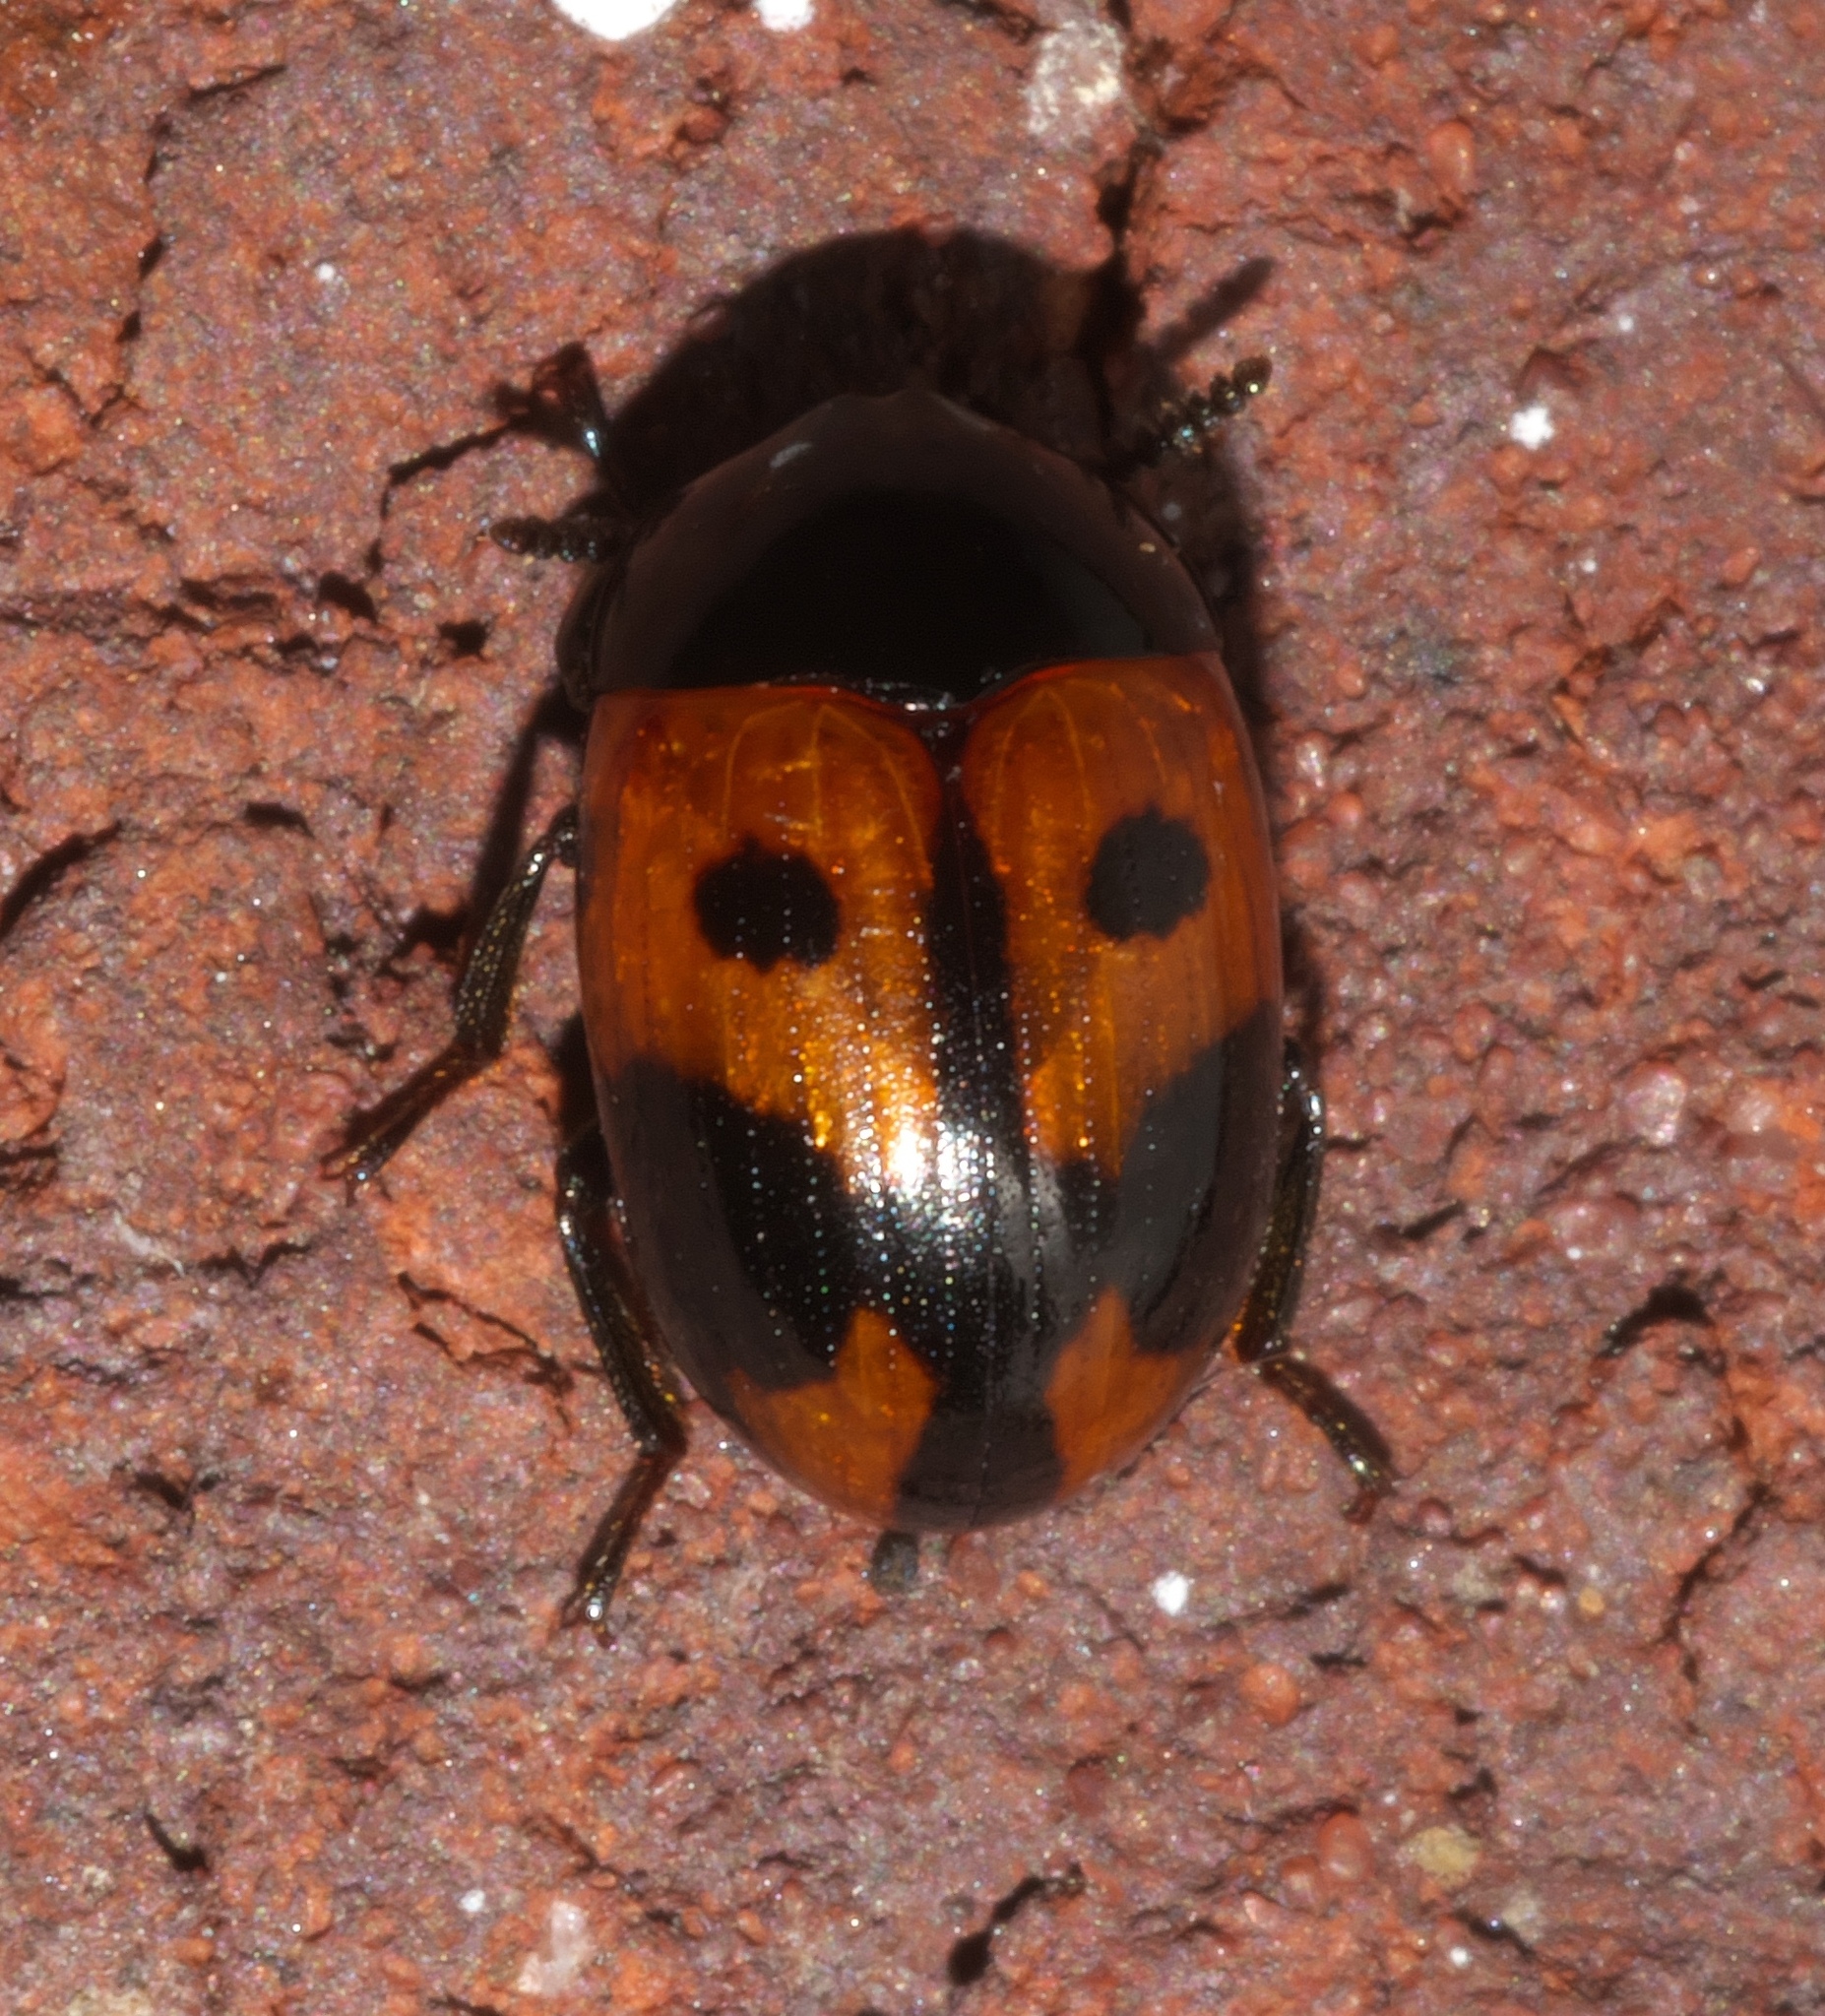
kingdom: Animalia
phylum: Arthropoda
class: Insecta
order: Coleoptera
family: Tenebrionidae
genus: Diaperis
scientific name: Diaperis maculata
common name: Darkling beetle
